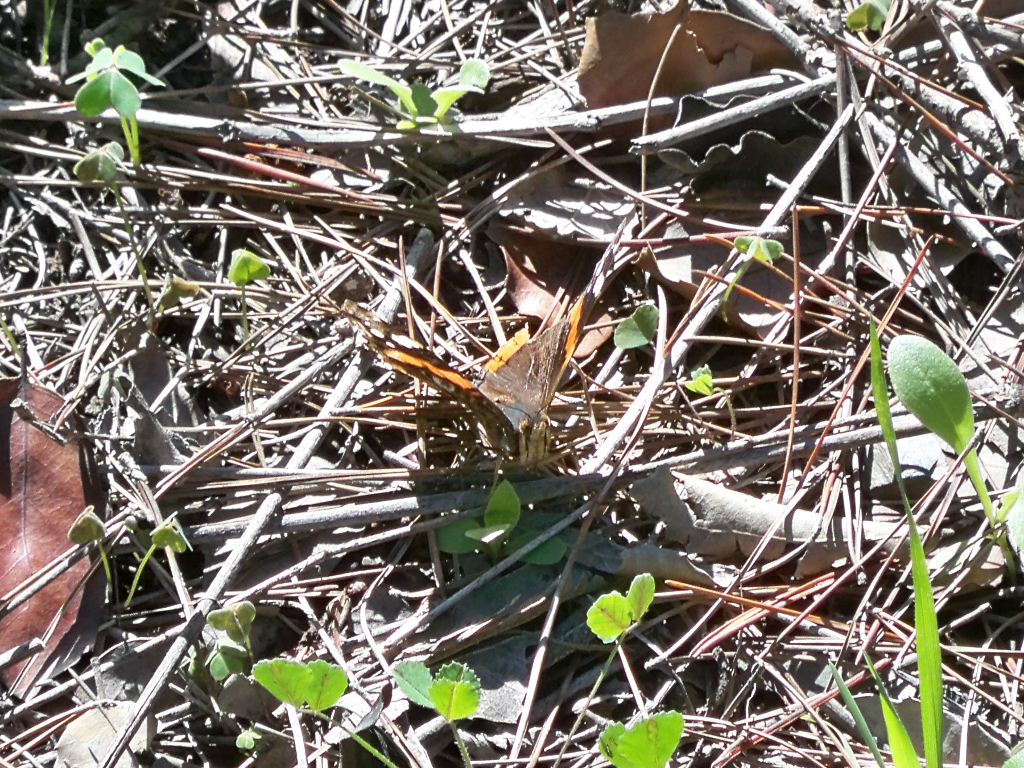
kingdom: Animalia
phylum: Arthropoda
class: Insecta
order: Lepidoptera
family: Nymphalidae
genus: Vanessa
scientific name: Vanessa atalanta
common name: Red admiral
